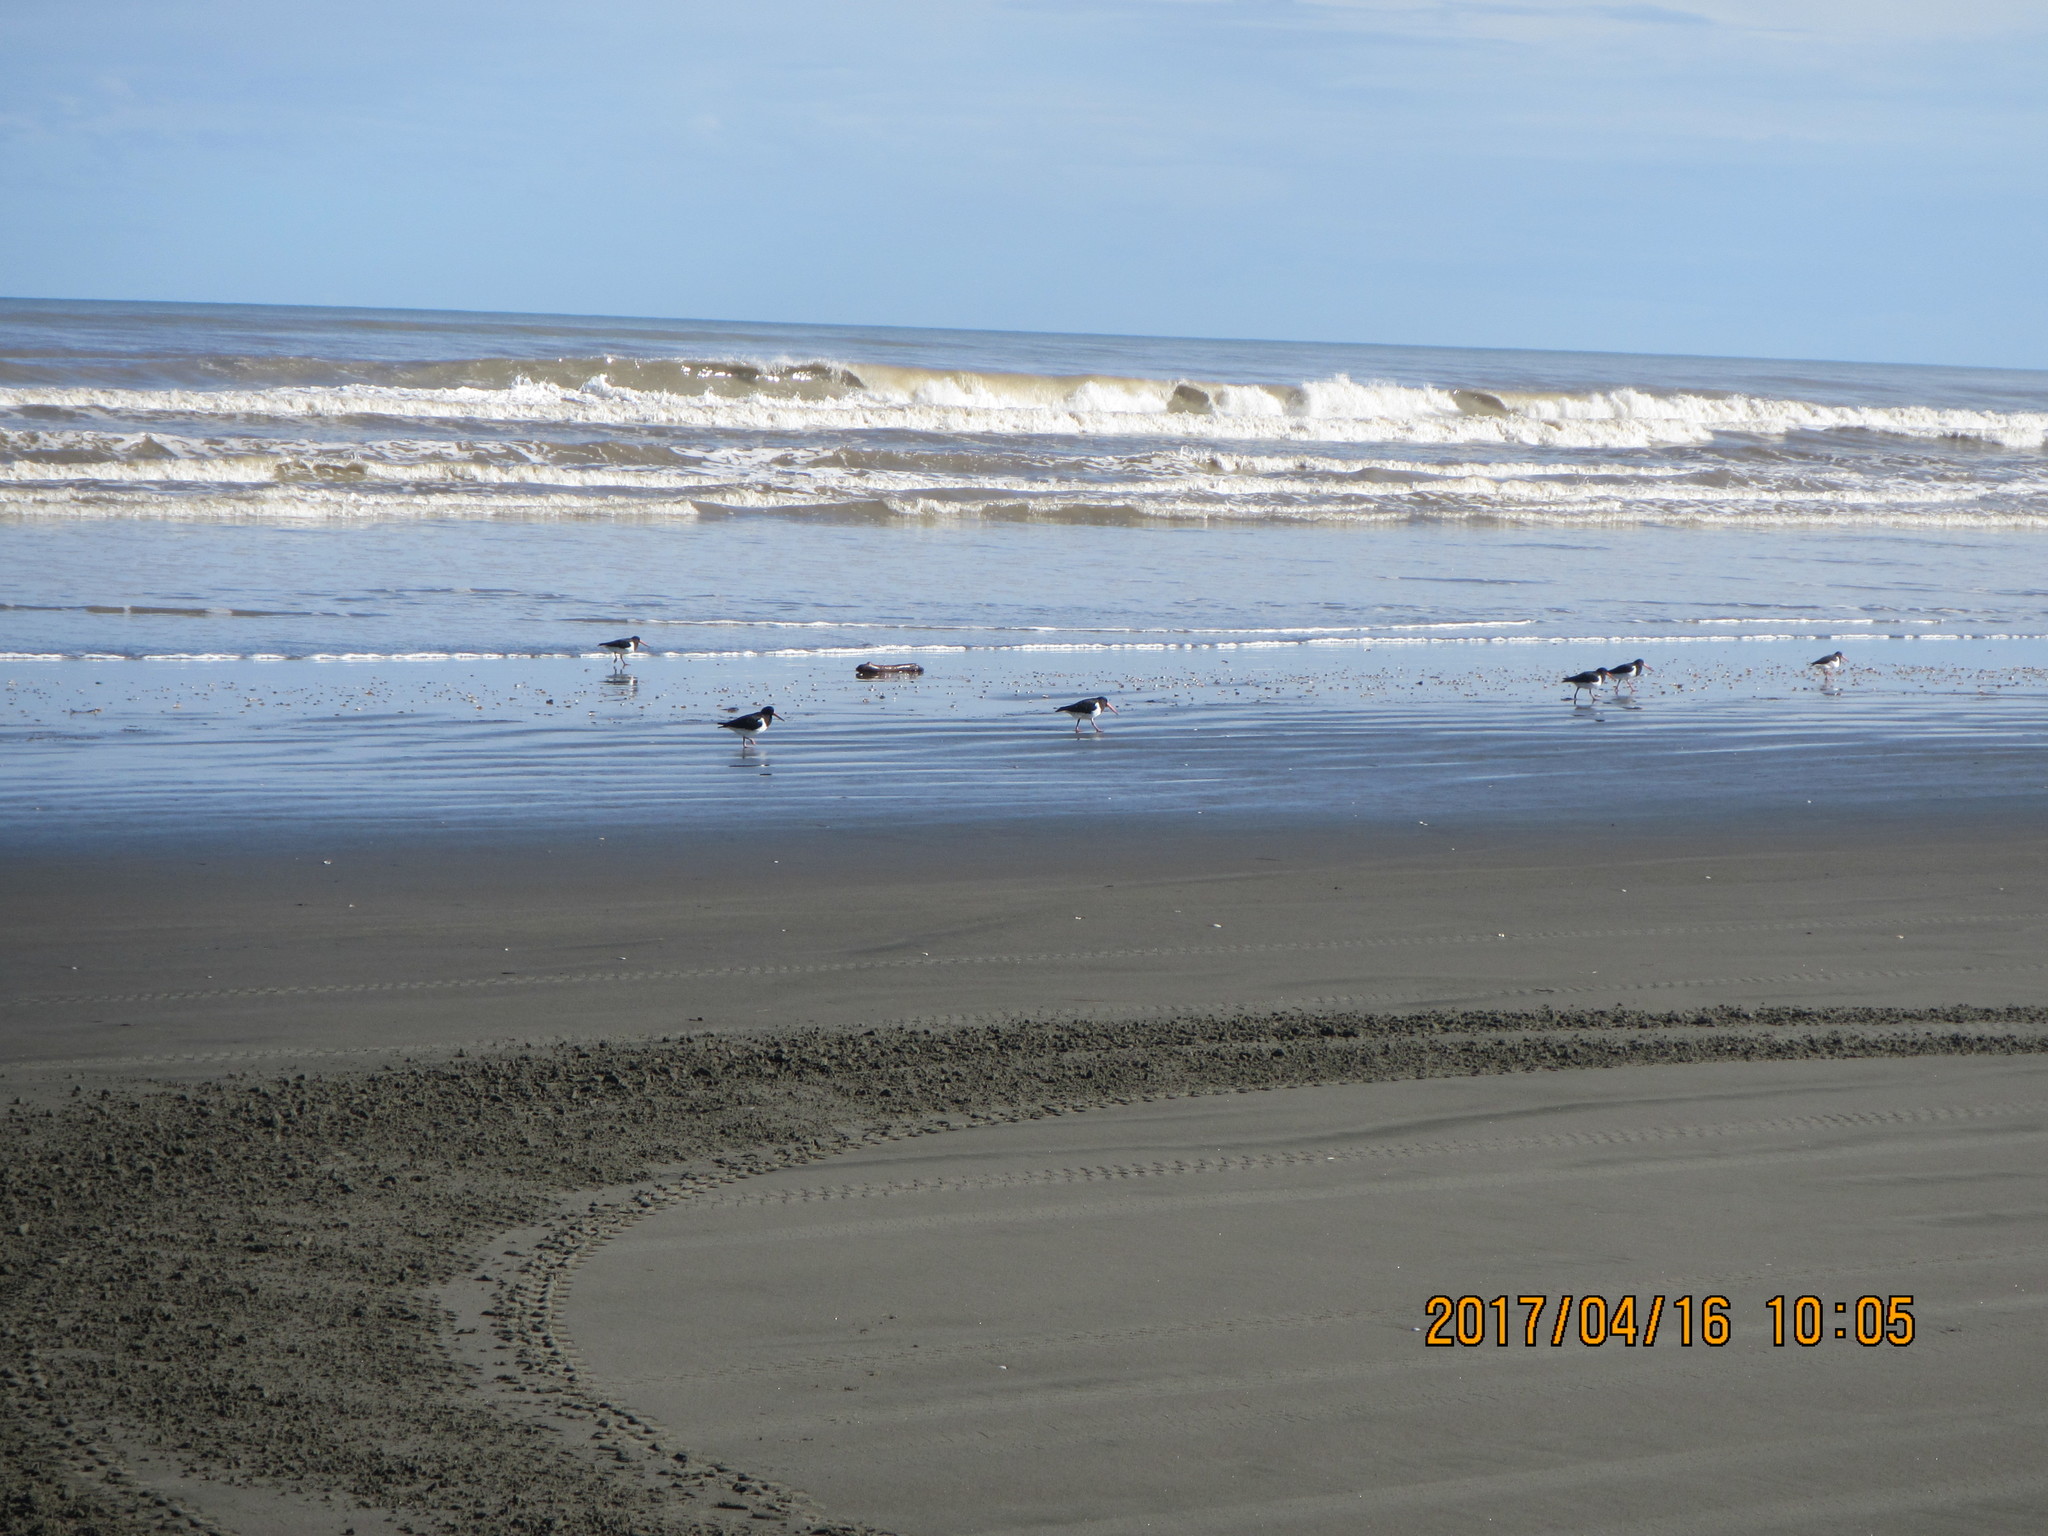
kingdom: Animalia
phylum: Chordata
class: Aves
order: Charadriiformes
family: Haematopodidae
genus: Haematopus
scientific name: Haematopus finschi
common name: South island oystercatcher
